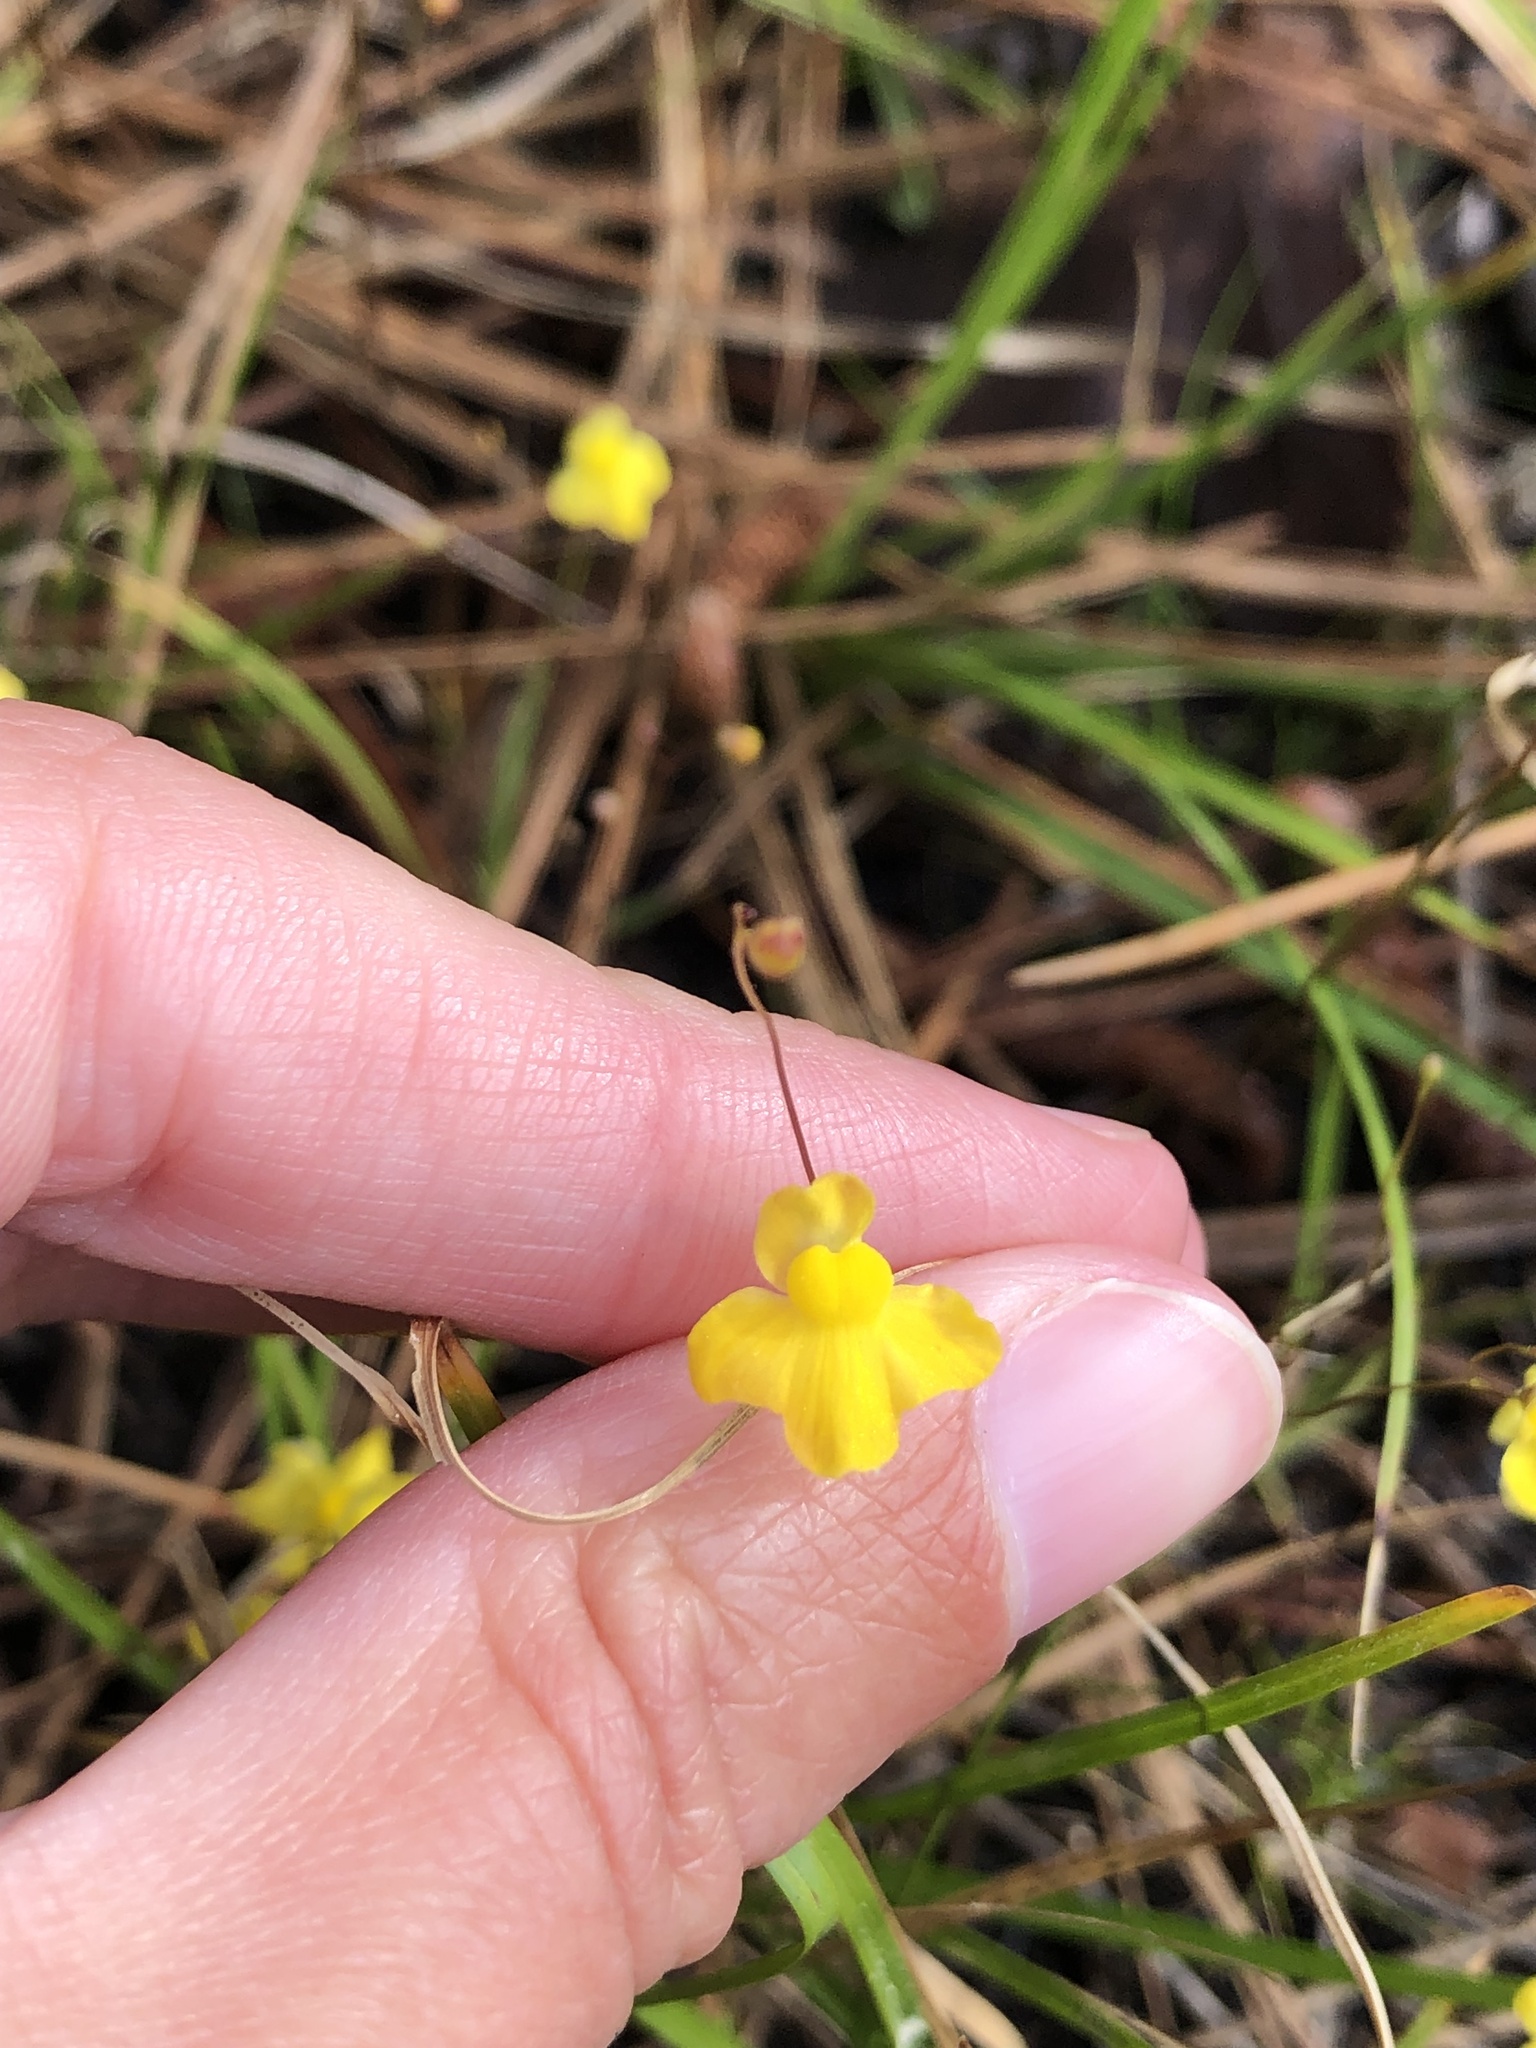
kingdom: Plantae
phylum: Tracheophyta
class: Magnoliopsida
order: Lamiales
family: Lentibulariaceae
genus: Utricularia
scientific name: Utricularia subulata
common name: Tiny bladderwort
